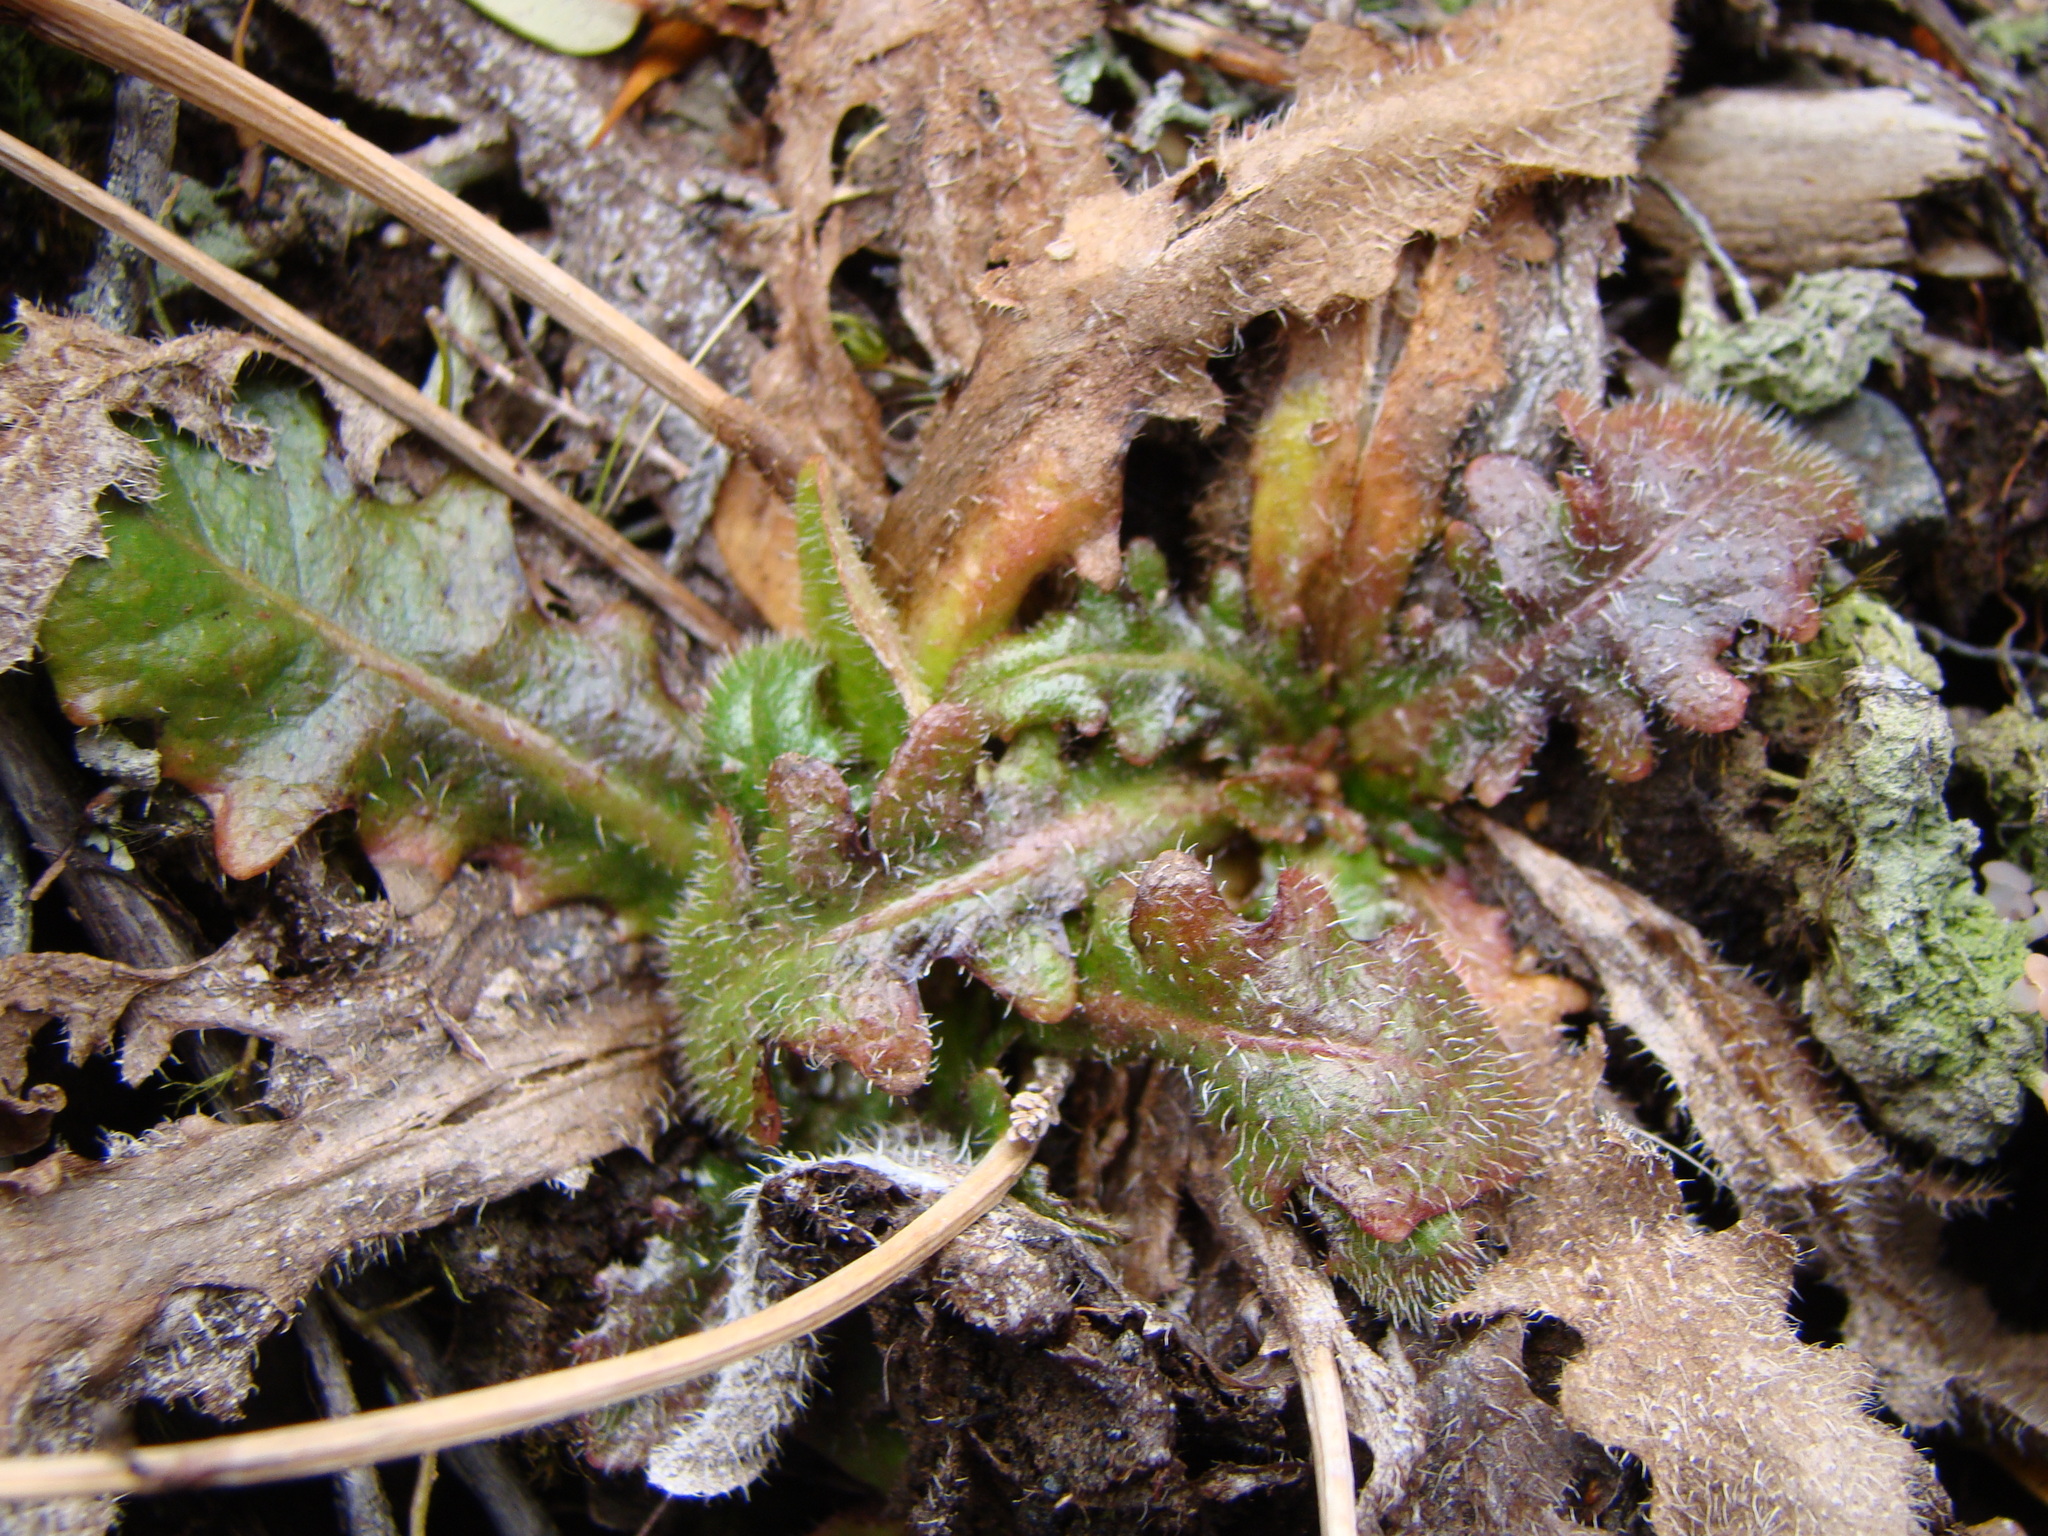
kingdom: Plantae
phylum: Tracheophyta
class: Magnoliopsida
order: Asterales
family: Asteraceae
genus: Hypochaeris
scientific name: Hypochaeris radicata
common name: Flatweed
